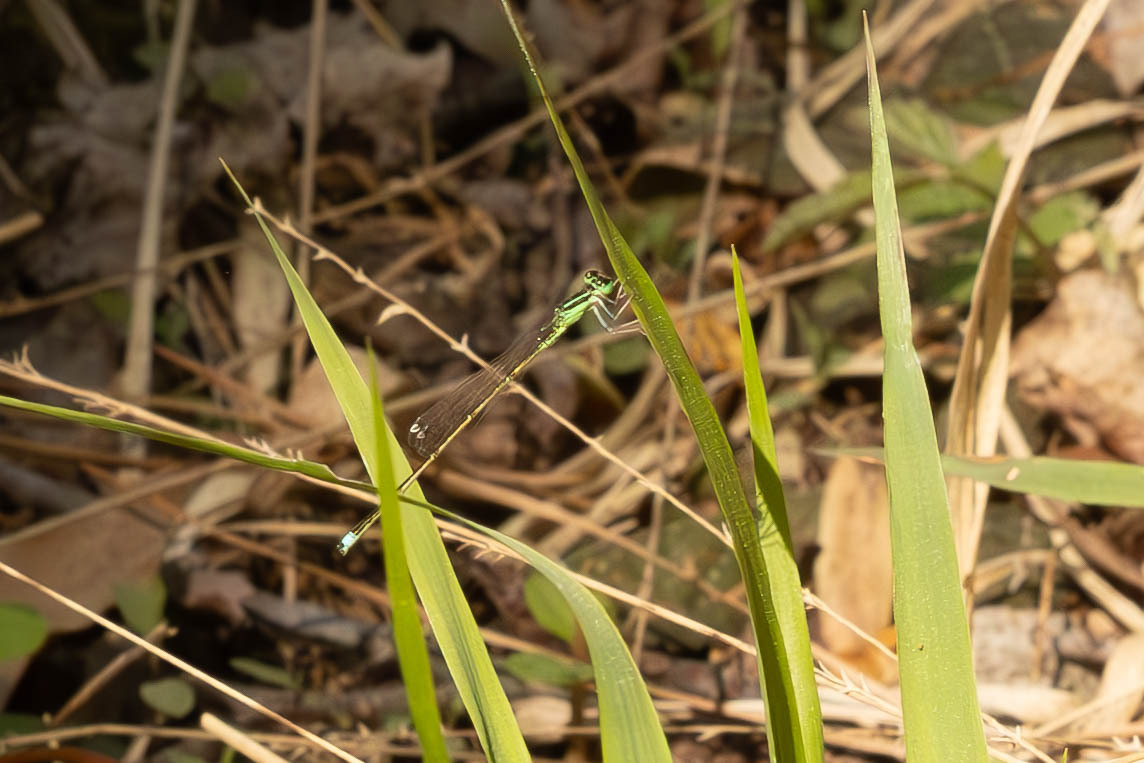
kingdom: Animalia
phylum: Arthropoda
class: Insecta
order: Odonata
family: Coenagrionidae
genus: Ischnura
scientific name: Ischnura prognata
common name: Furtive forktail
